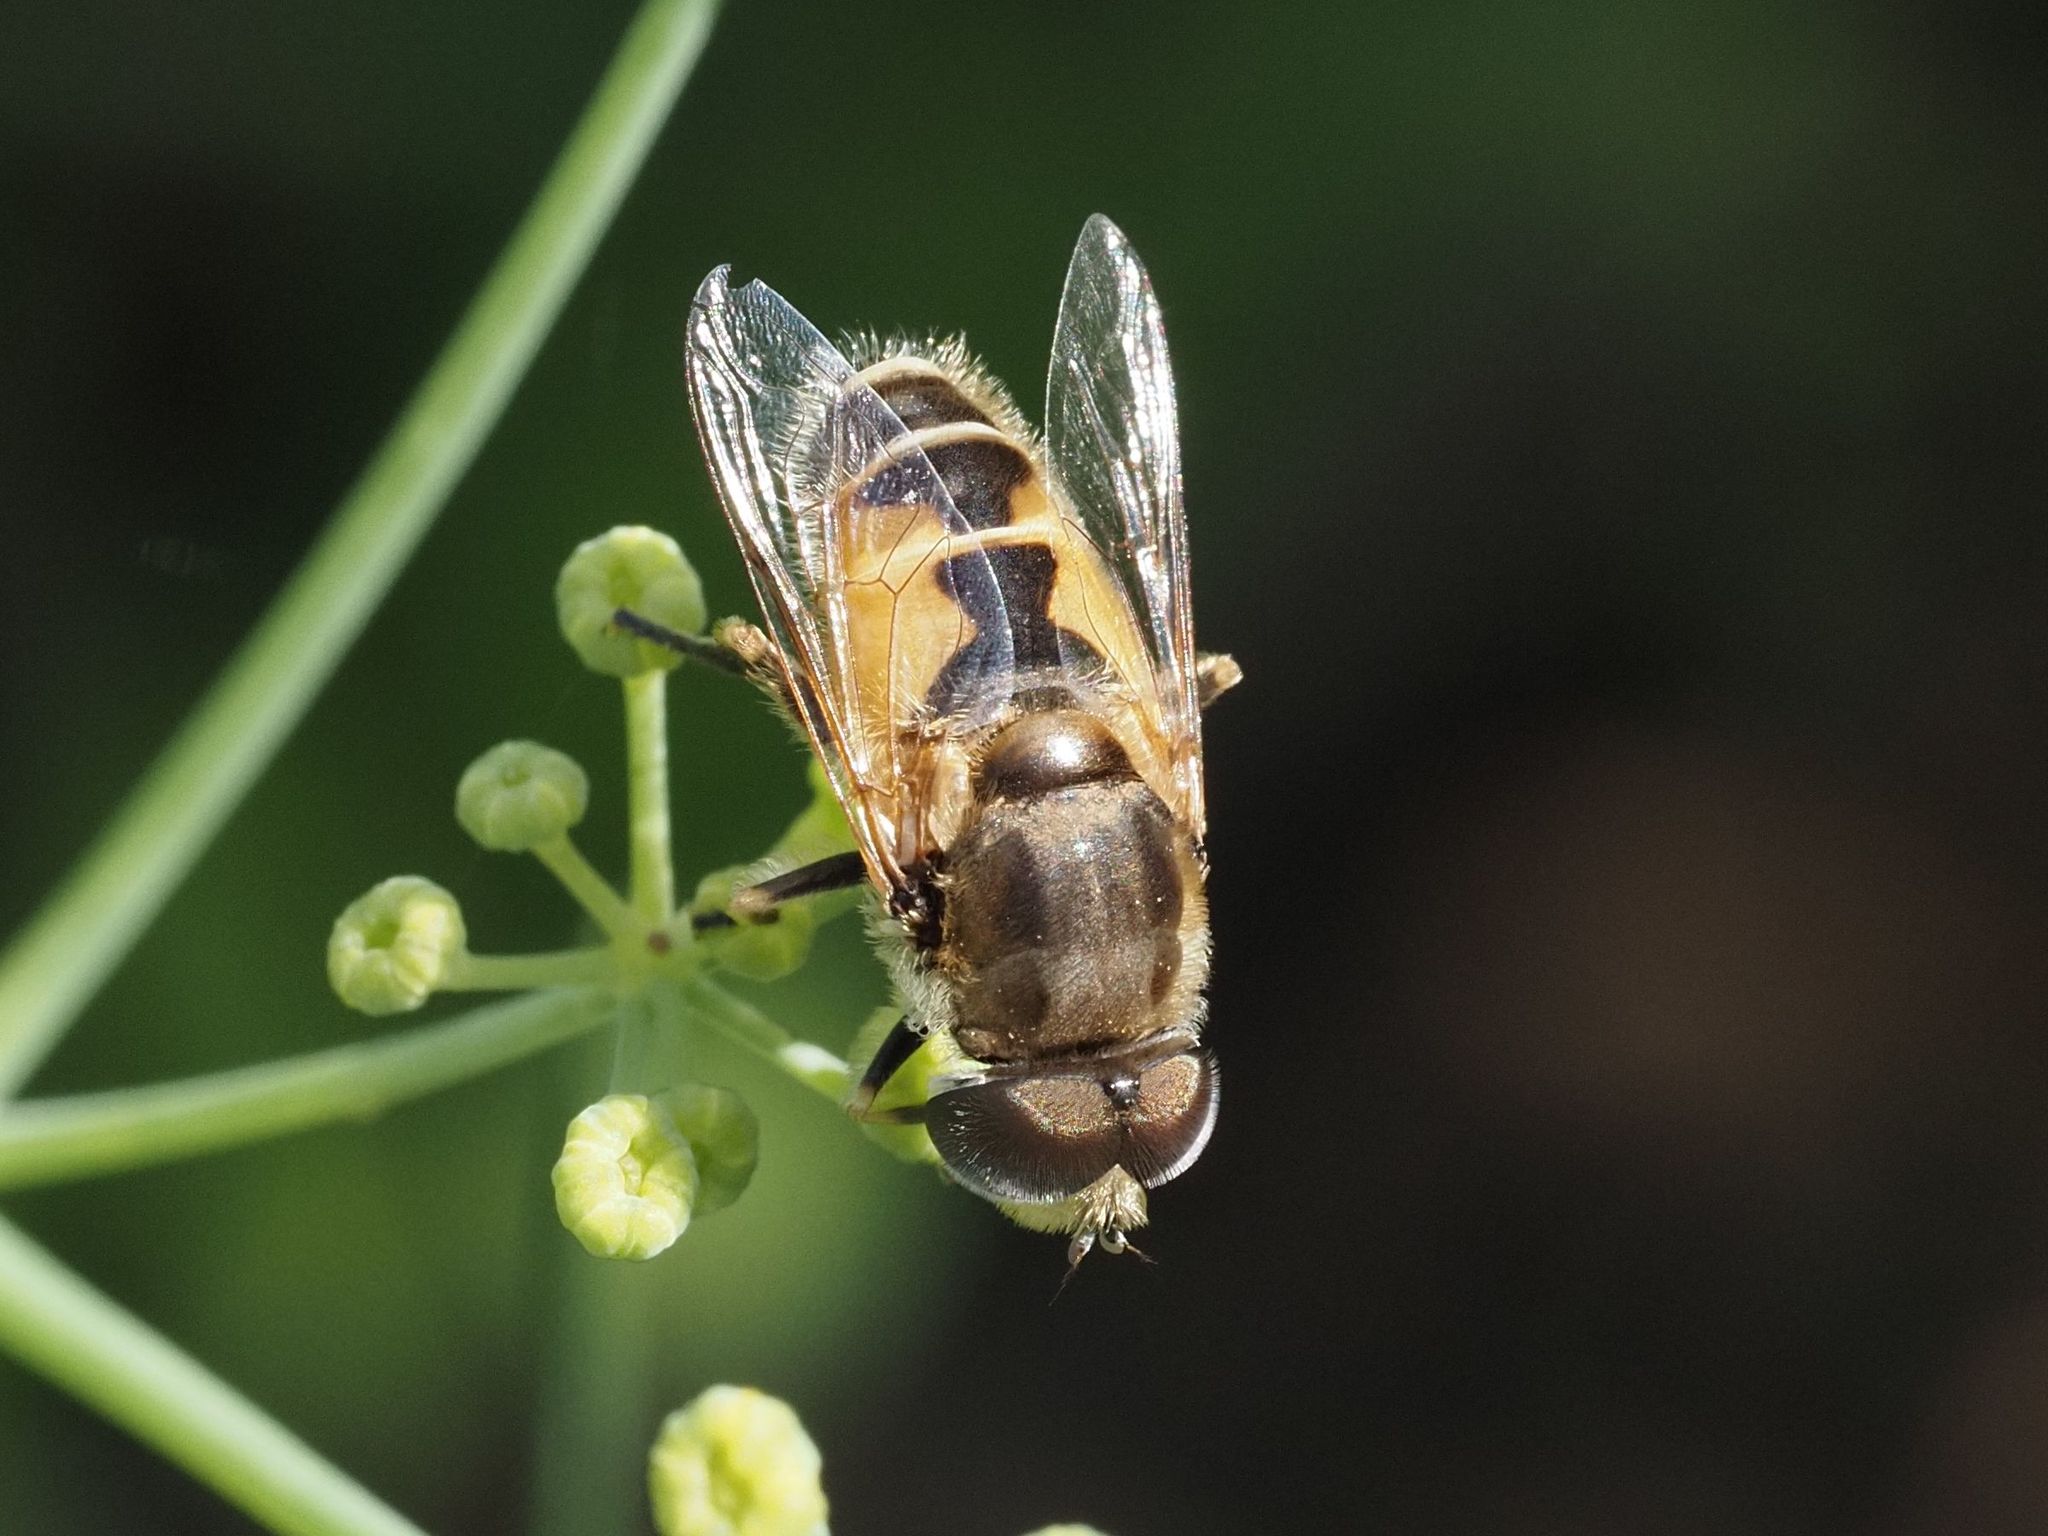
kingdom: Animalia
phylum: Arthropoda
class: Insecta
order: Diptera
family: Syrphidae
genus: Eristalis
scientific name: Eristalis arbustorum
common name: Hover fly
